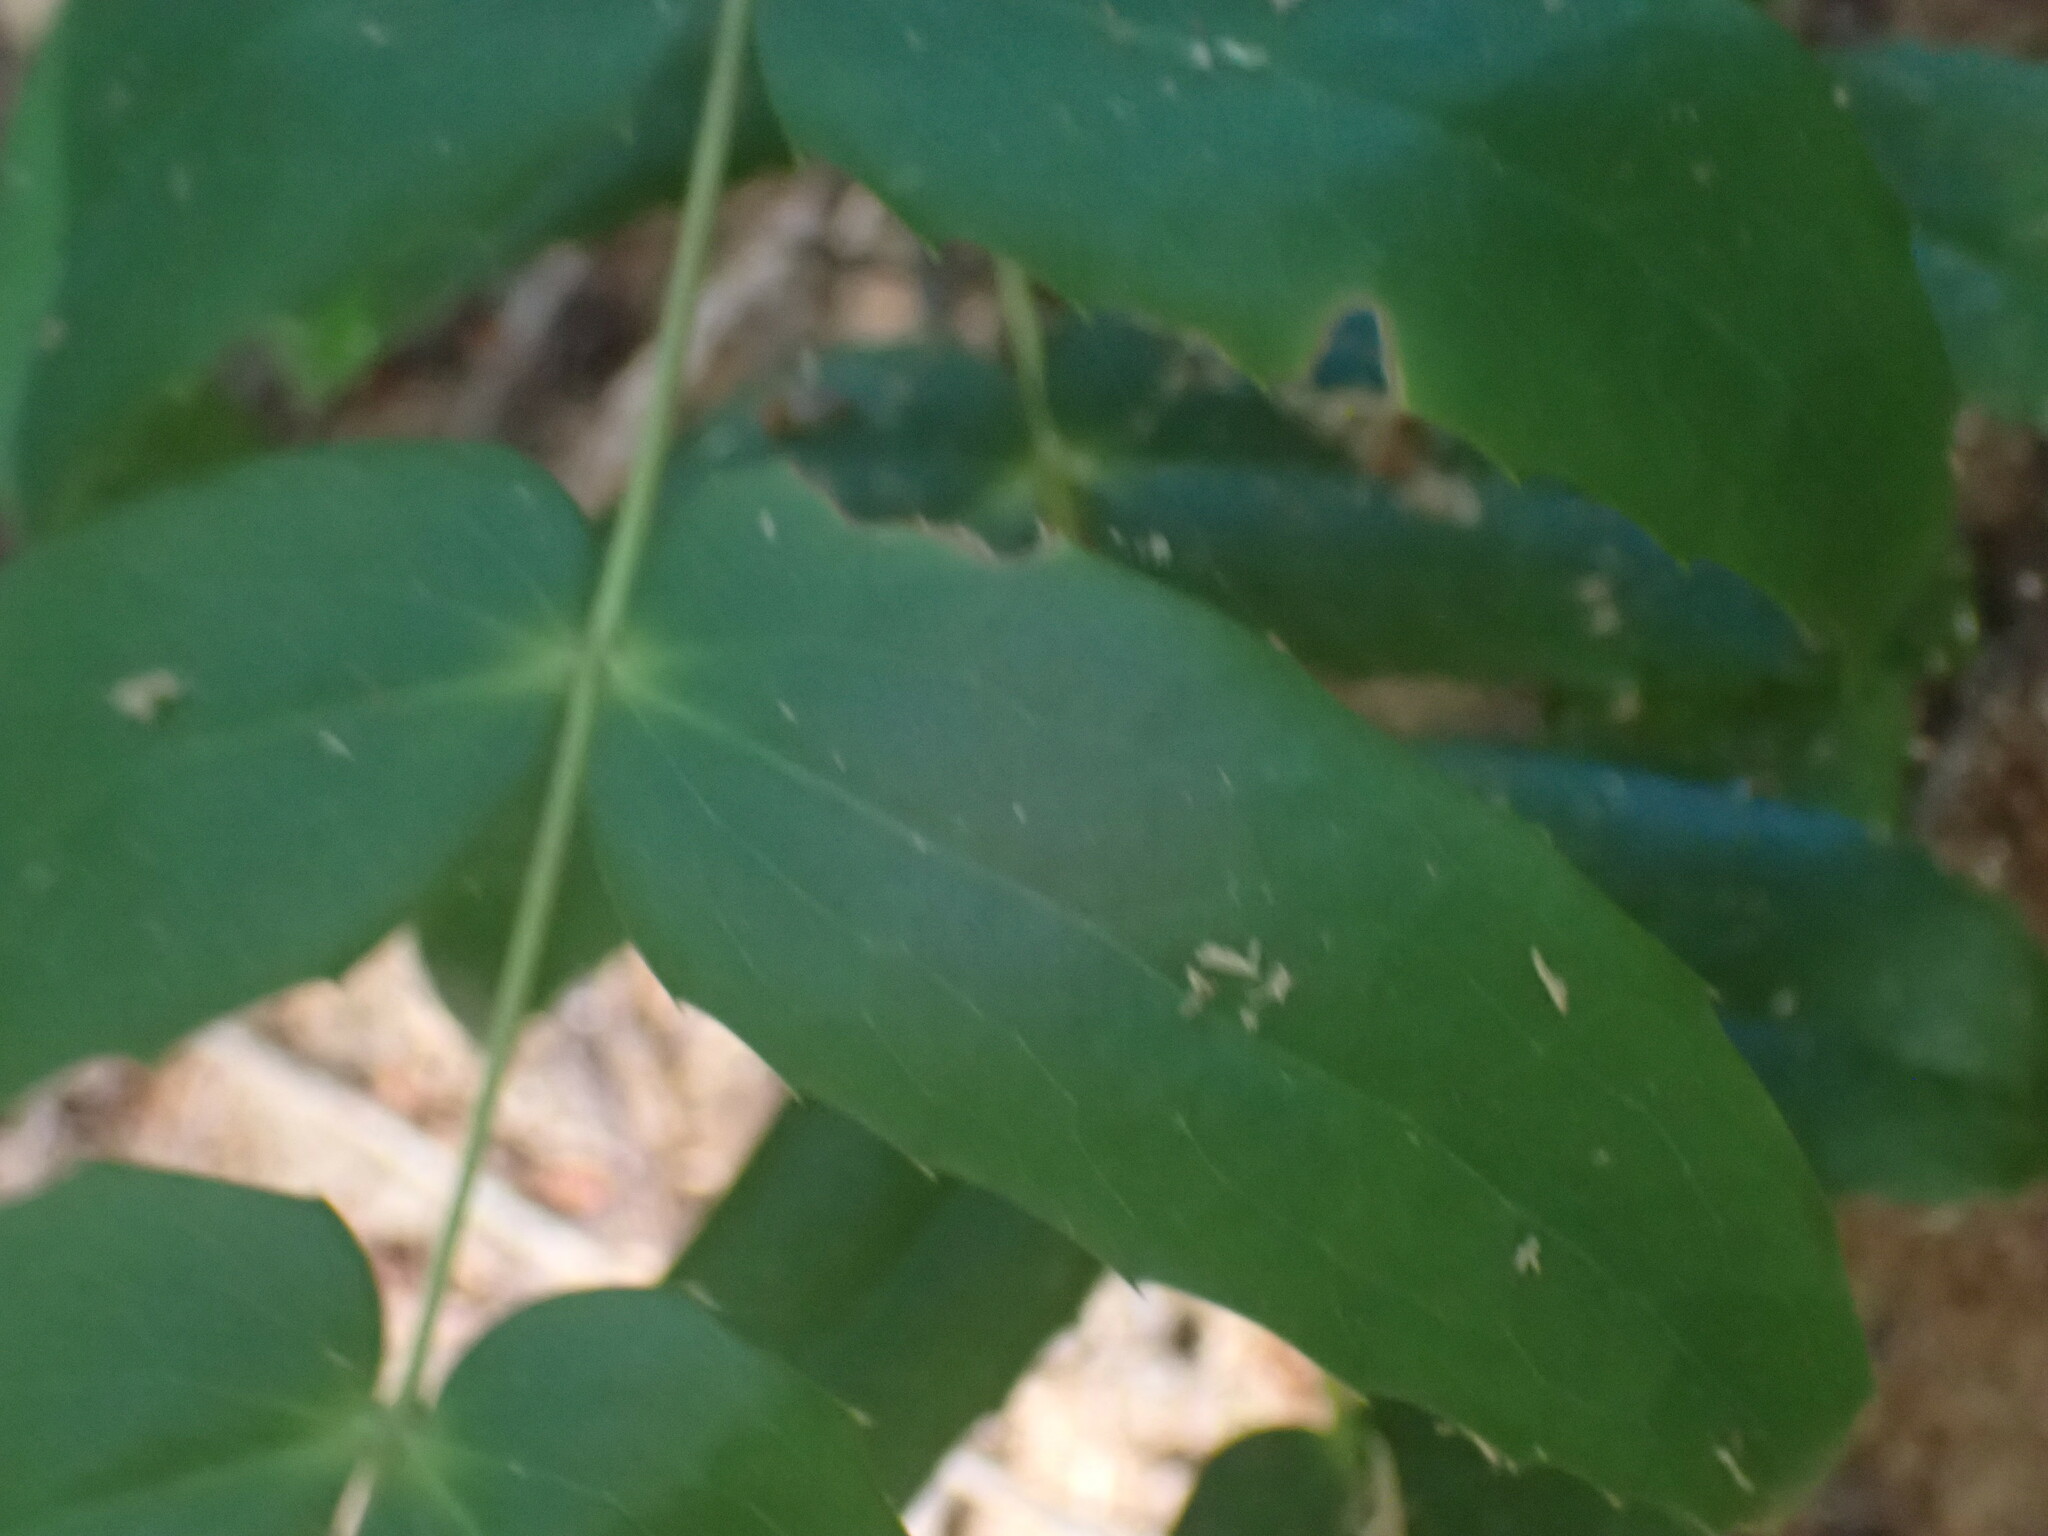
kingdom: Plantae
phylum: Tracheophyta
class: Magnoliopsida
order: Ranunculales
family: Berberidaceae
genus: Mahonia
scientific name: Mahonia nervosa
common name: Cascade oregon-grape
